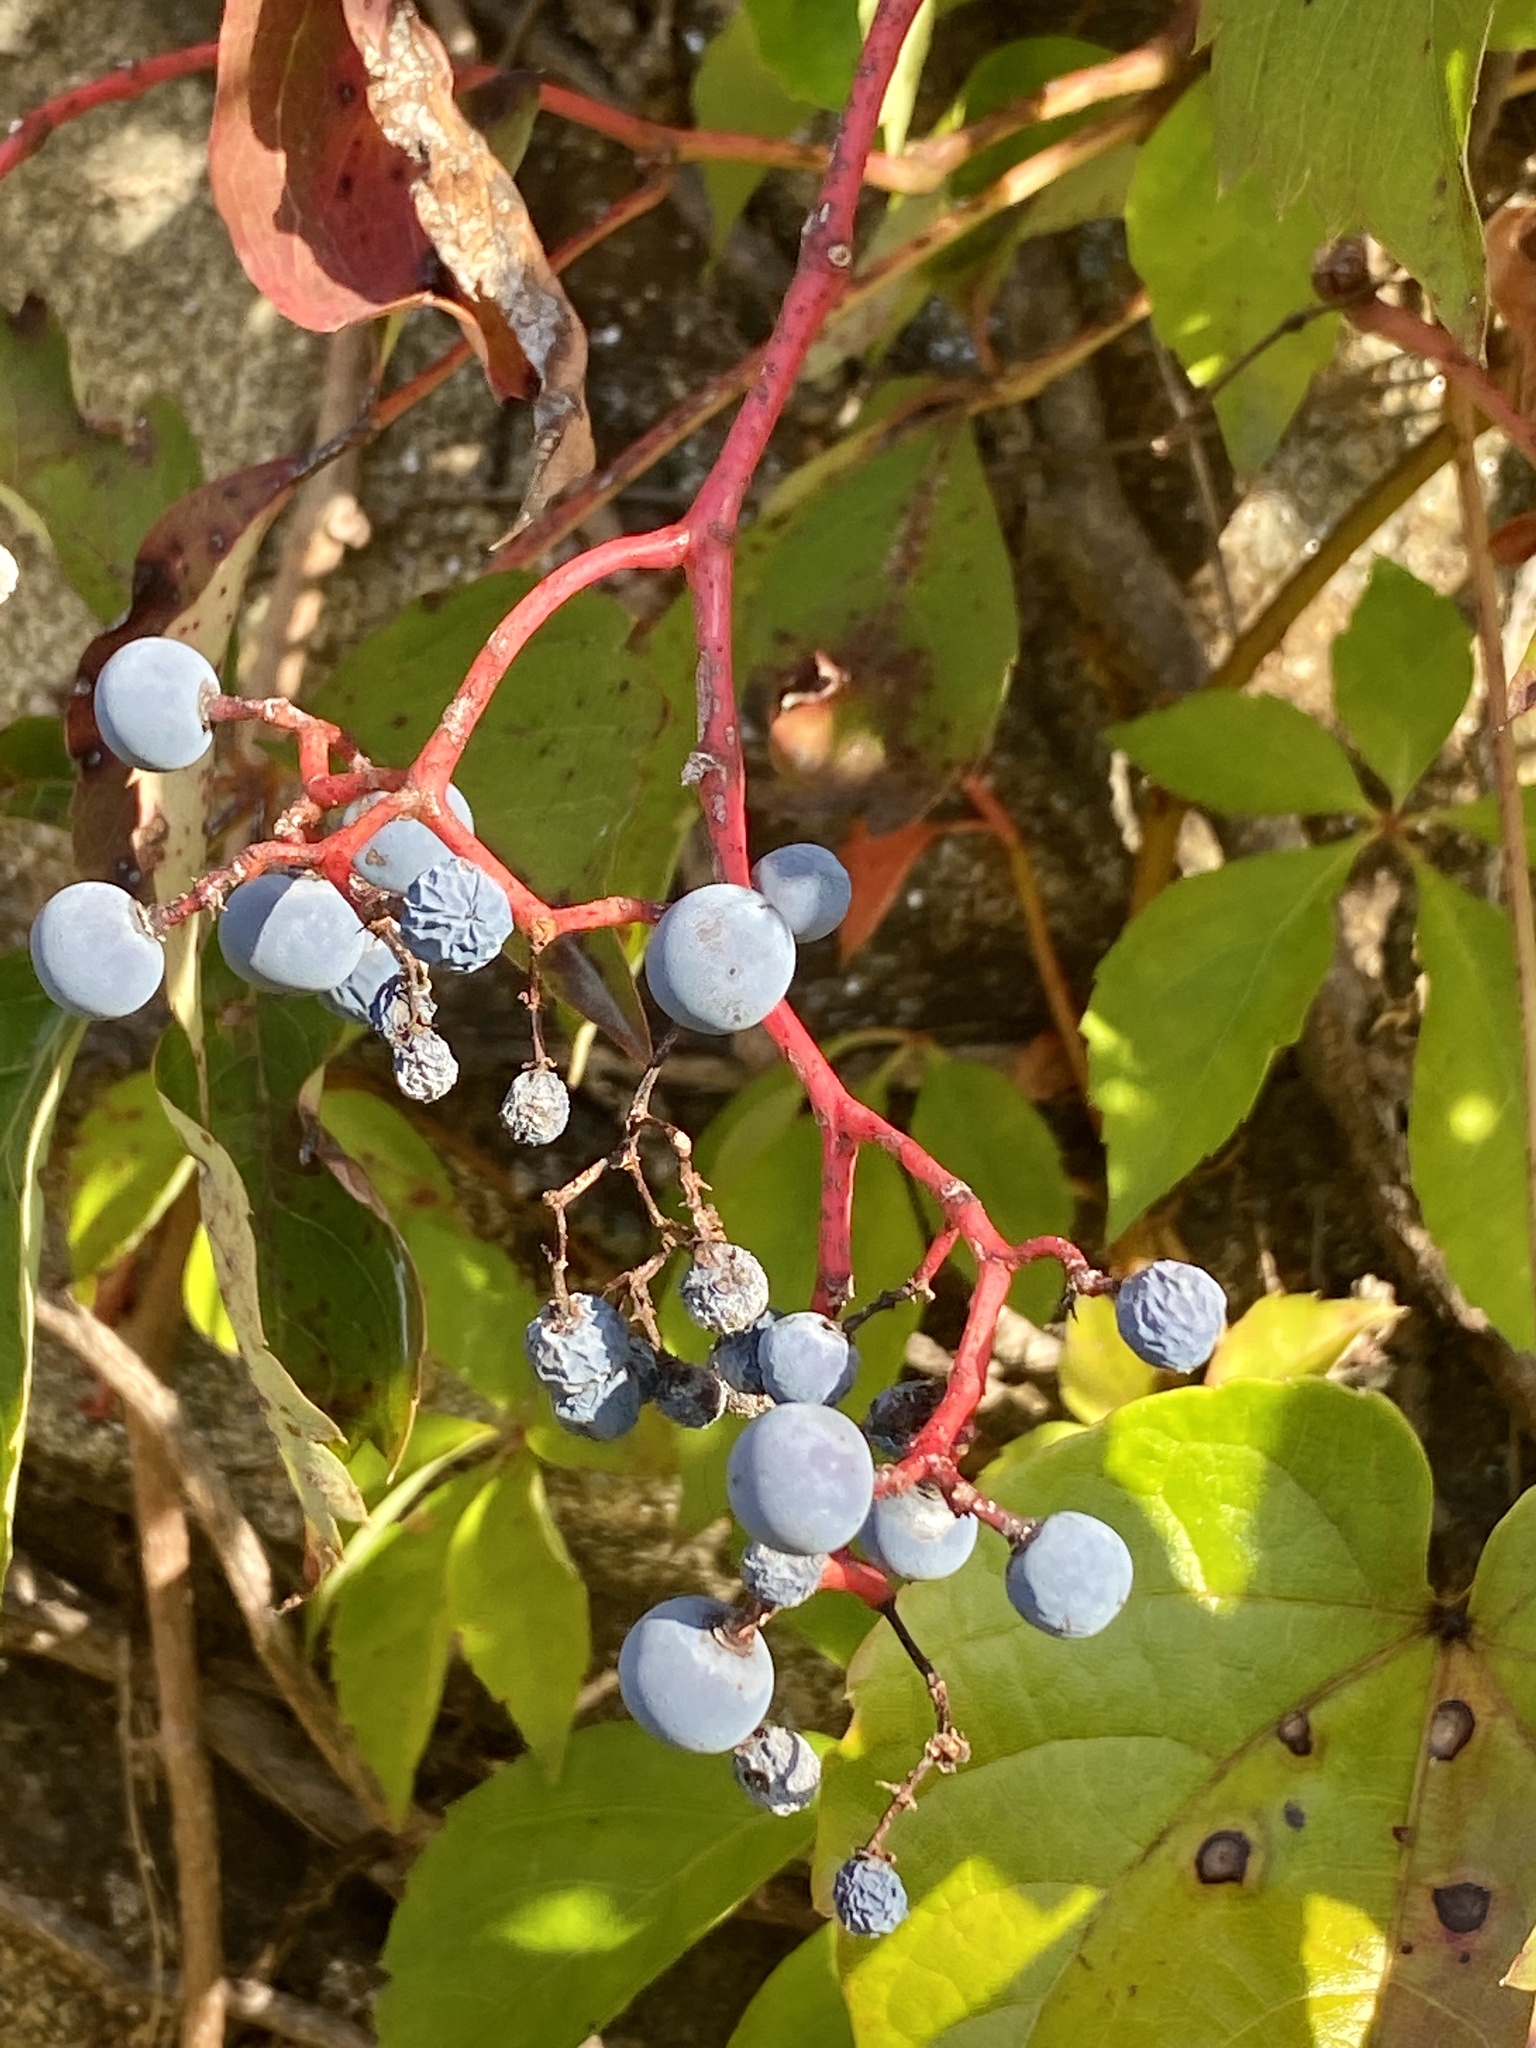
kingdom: Plantae
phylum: Tracheophyta
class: Magnoliopsida
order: Vitales
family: Vitaceae
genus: Parthenocissus
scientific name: Parthenocissus quinquefolia
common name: Virginia-creeper
